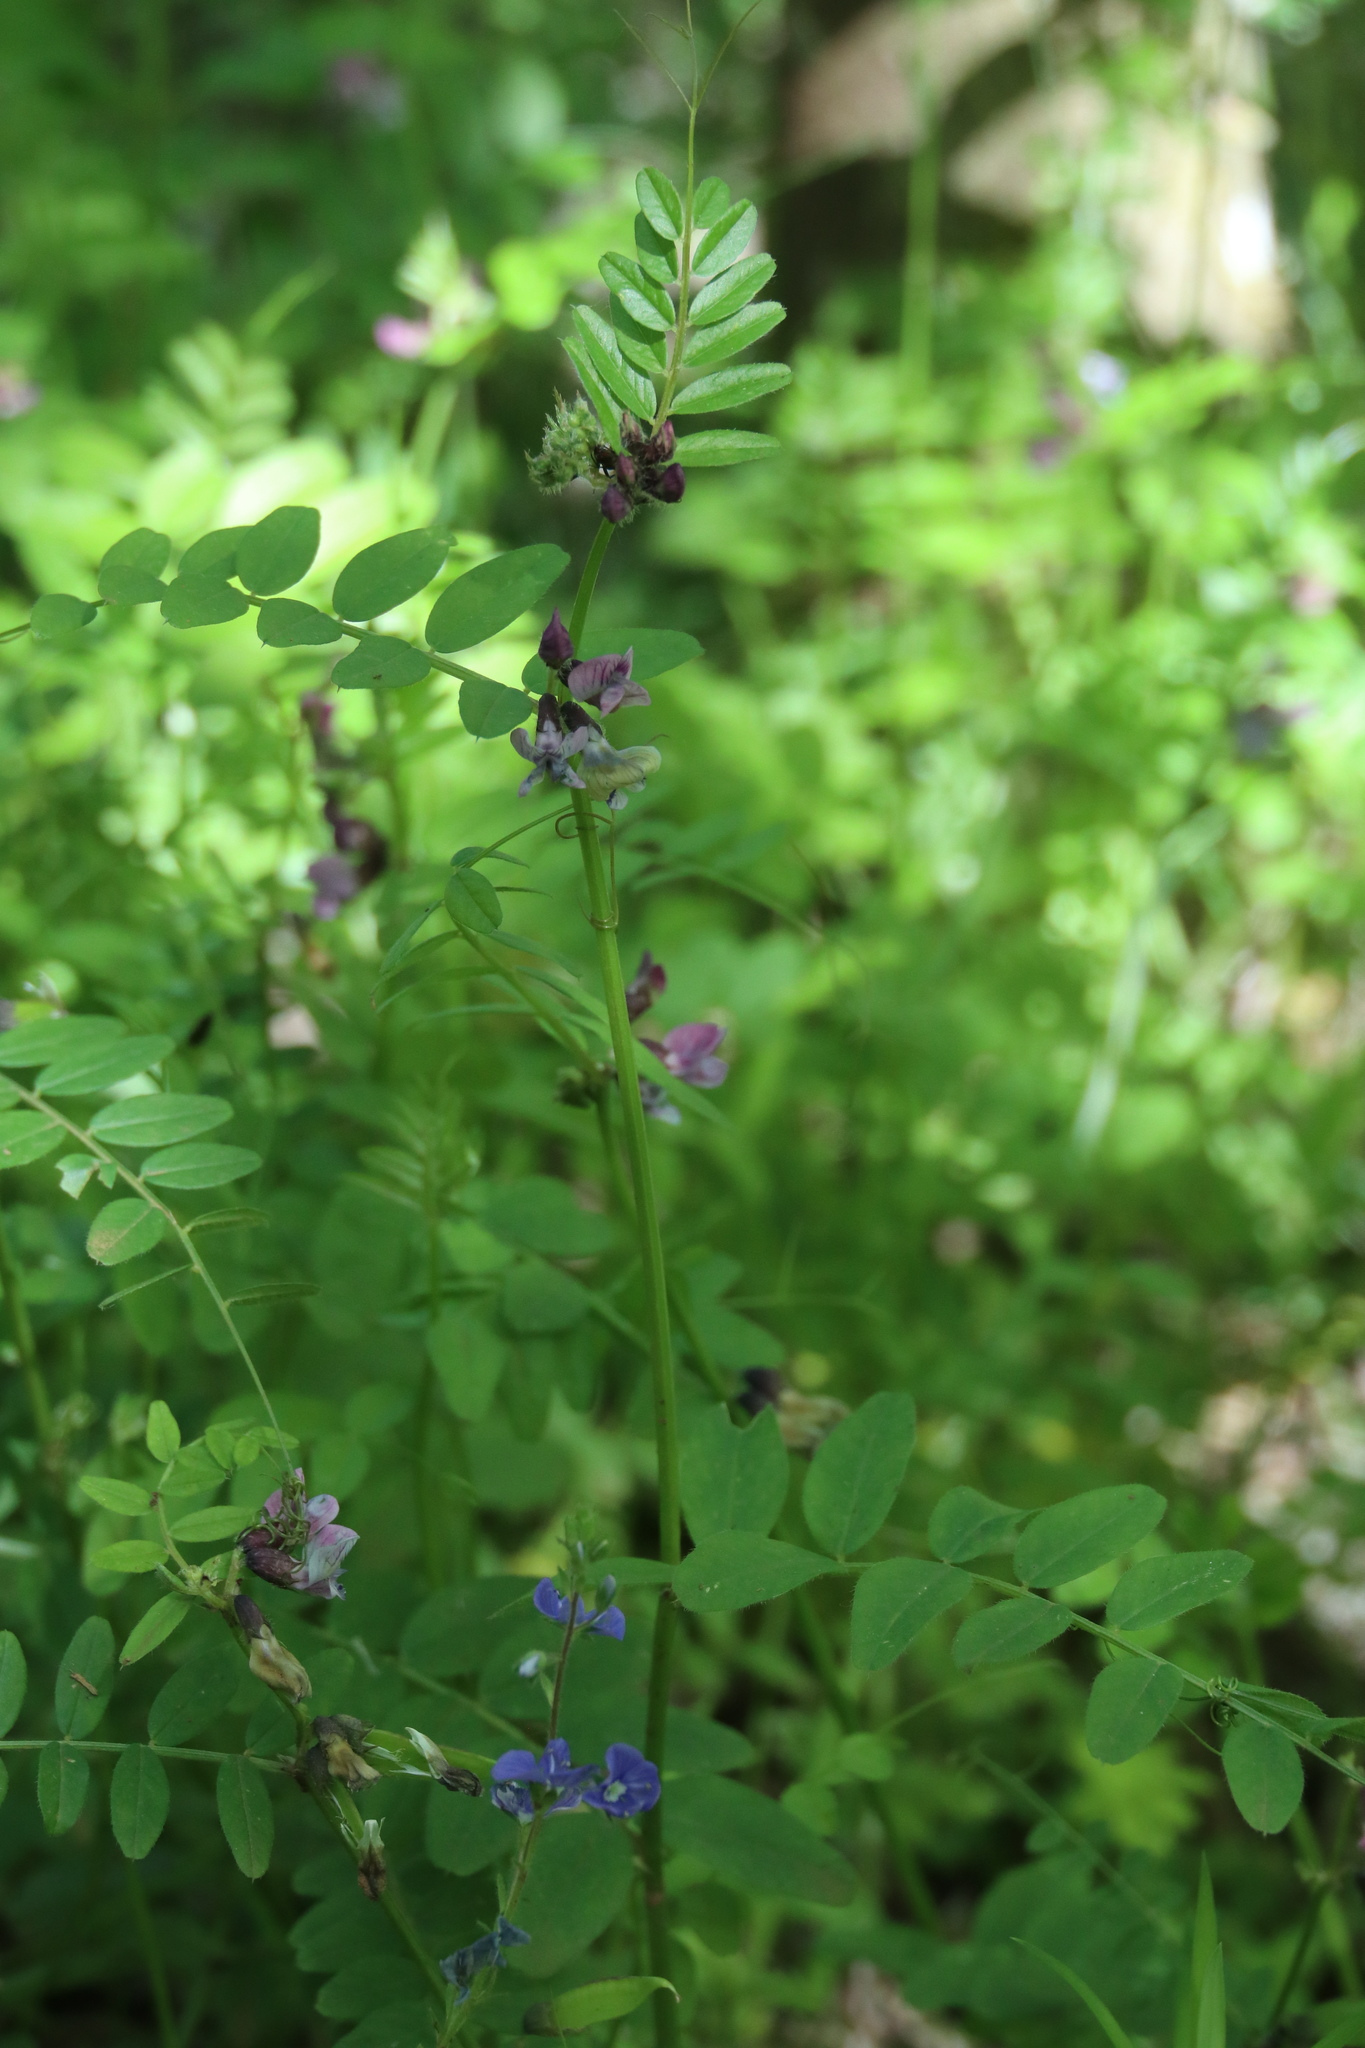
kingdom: Plantae
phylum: Tracheophyta
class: Magnoliopsida
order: Fabales
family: Fabaceae
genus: Vicia
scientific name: Vicia sepium
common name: Bush vetch
